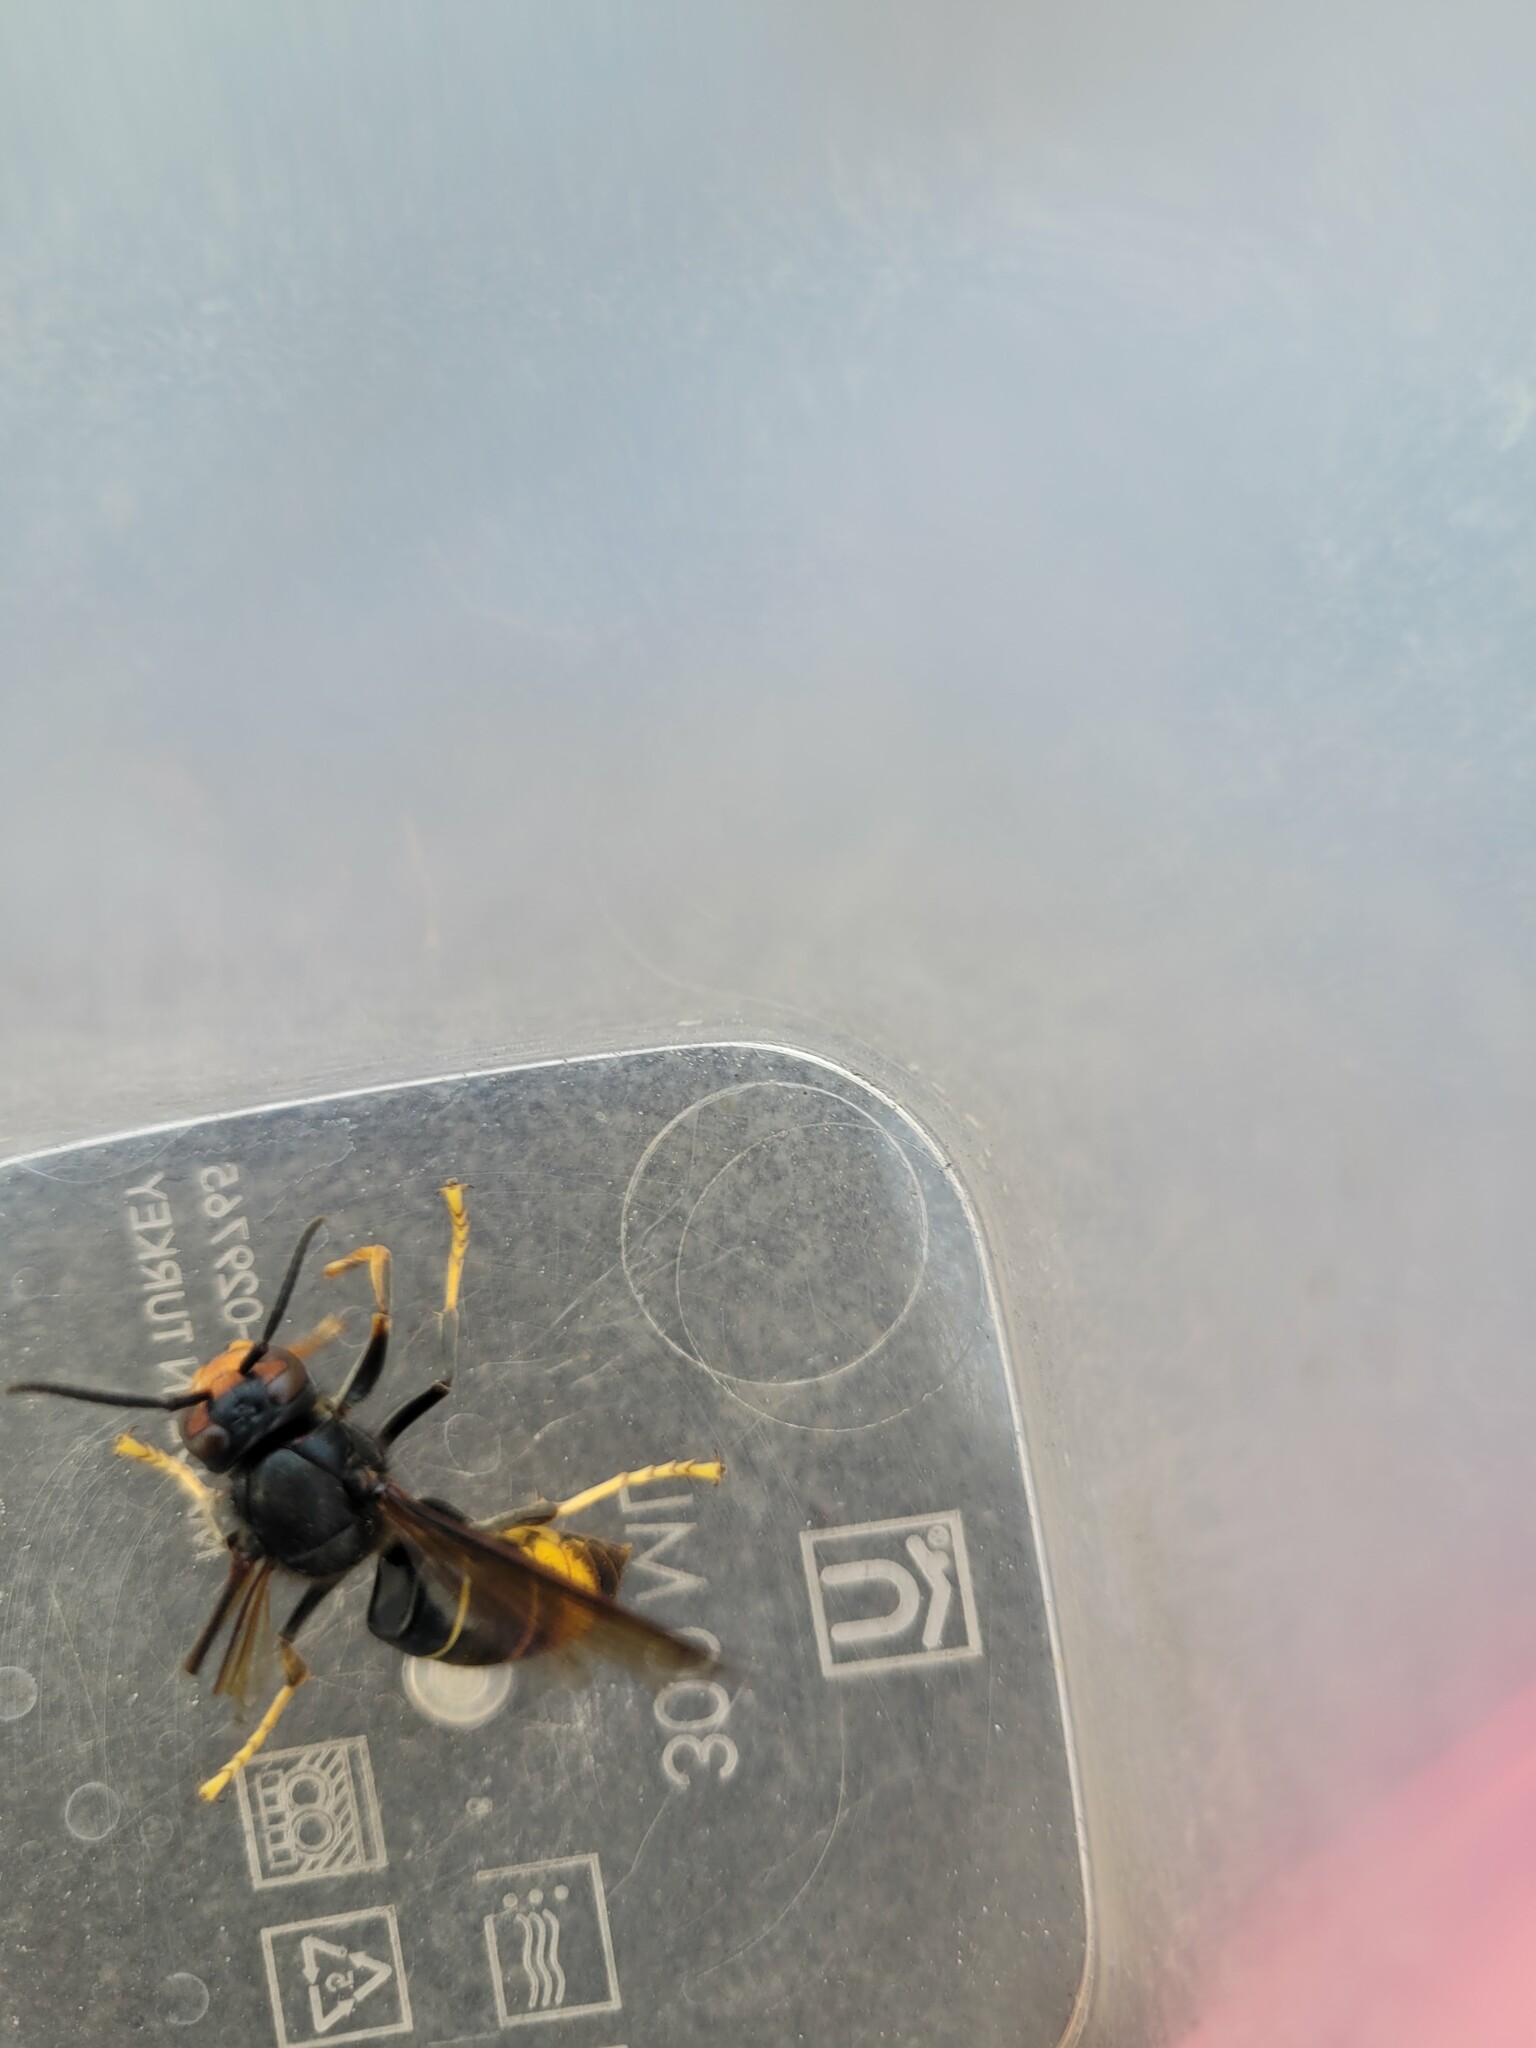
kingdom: Animalia
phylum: Arthropoda
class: Insecta
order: Hymenoptera
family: Vespidae
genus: Vespa
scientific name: Vespa velutina
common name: Asian hornet
